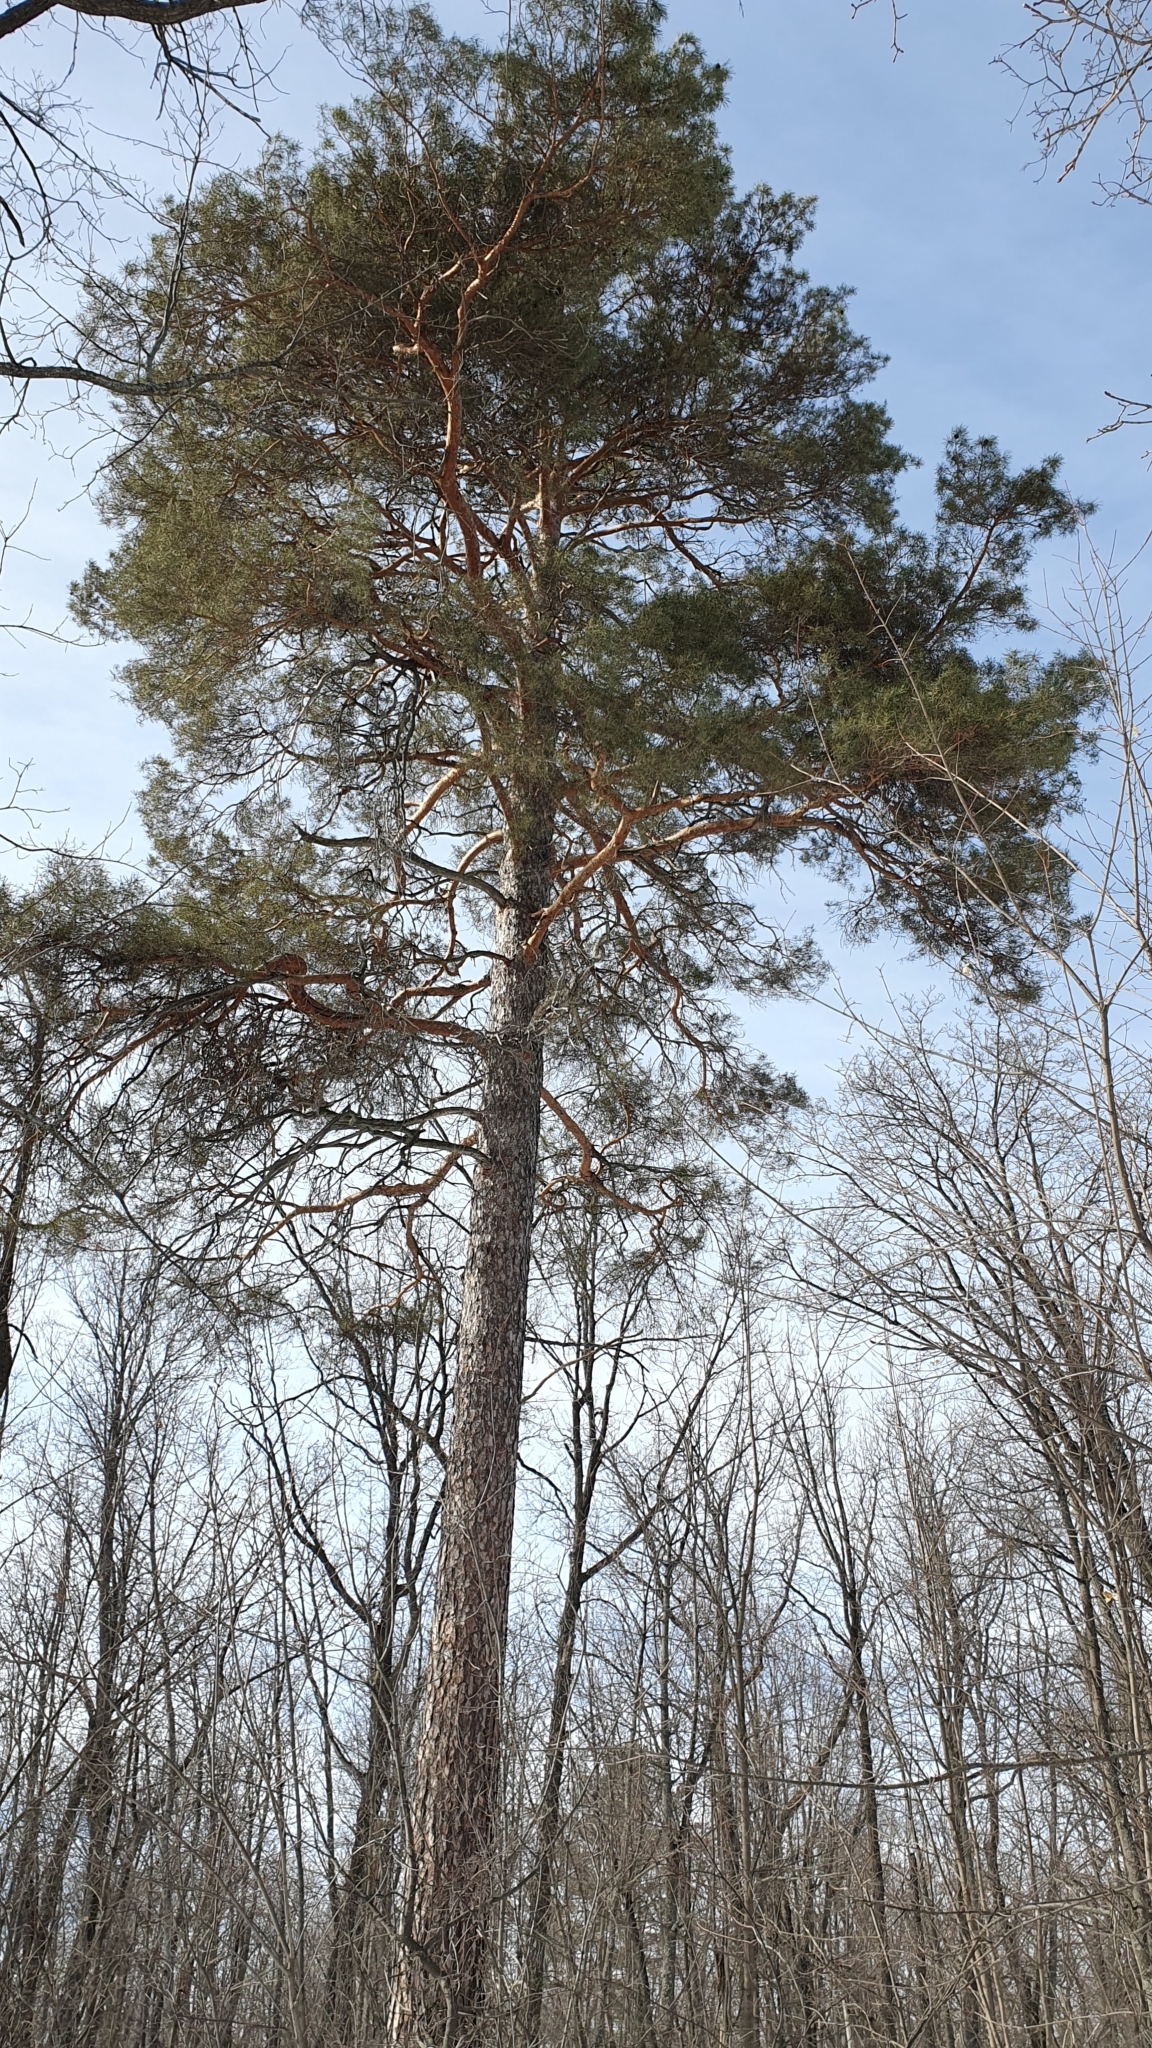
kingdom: Plantae
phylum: Tracheophyta
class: Pinopsida
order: Pinales
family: Pinaceae
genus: Pinus
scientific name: Pinus sylvestris
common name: Scots pine
